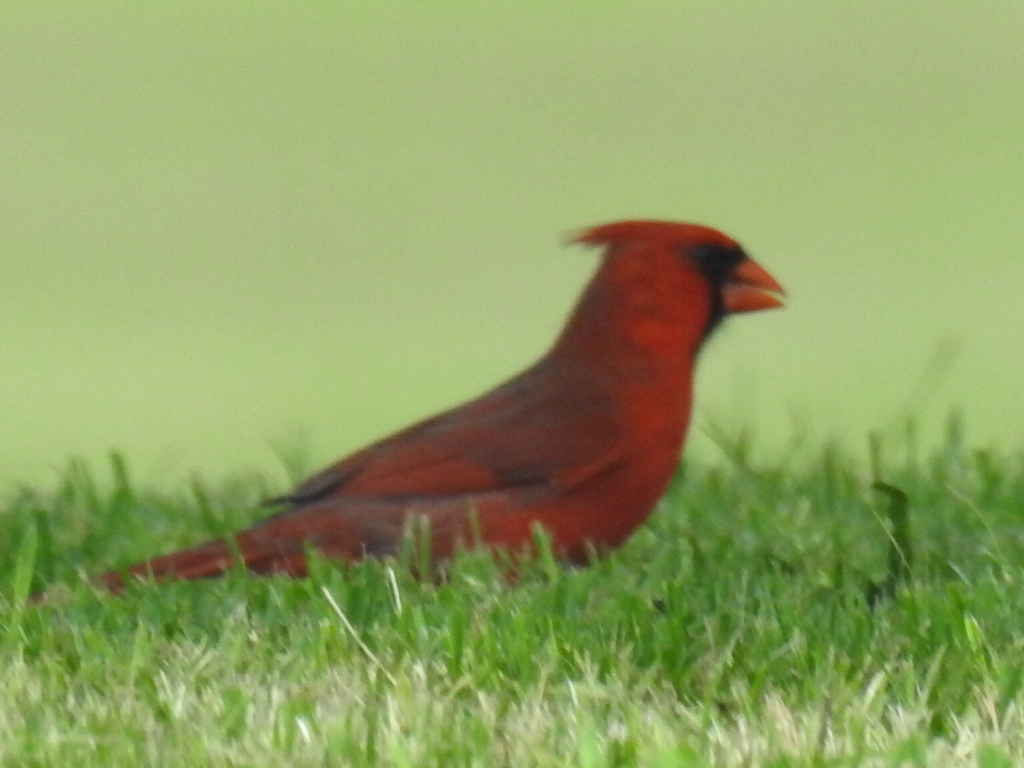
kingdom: Animalia
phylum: Chordata
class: Aves
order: Passeriformes
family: Cardinalidae
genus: Cardinalis
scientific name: Cardinalis cardinalis
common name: Northern cardinal
